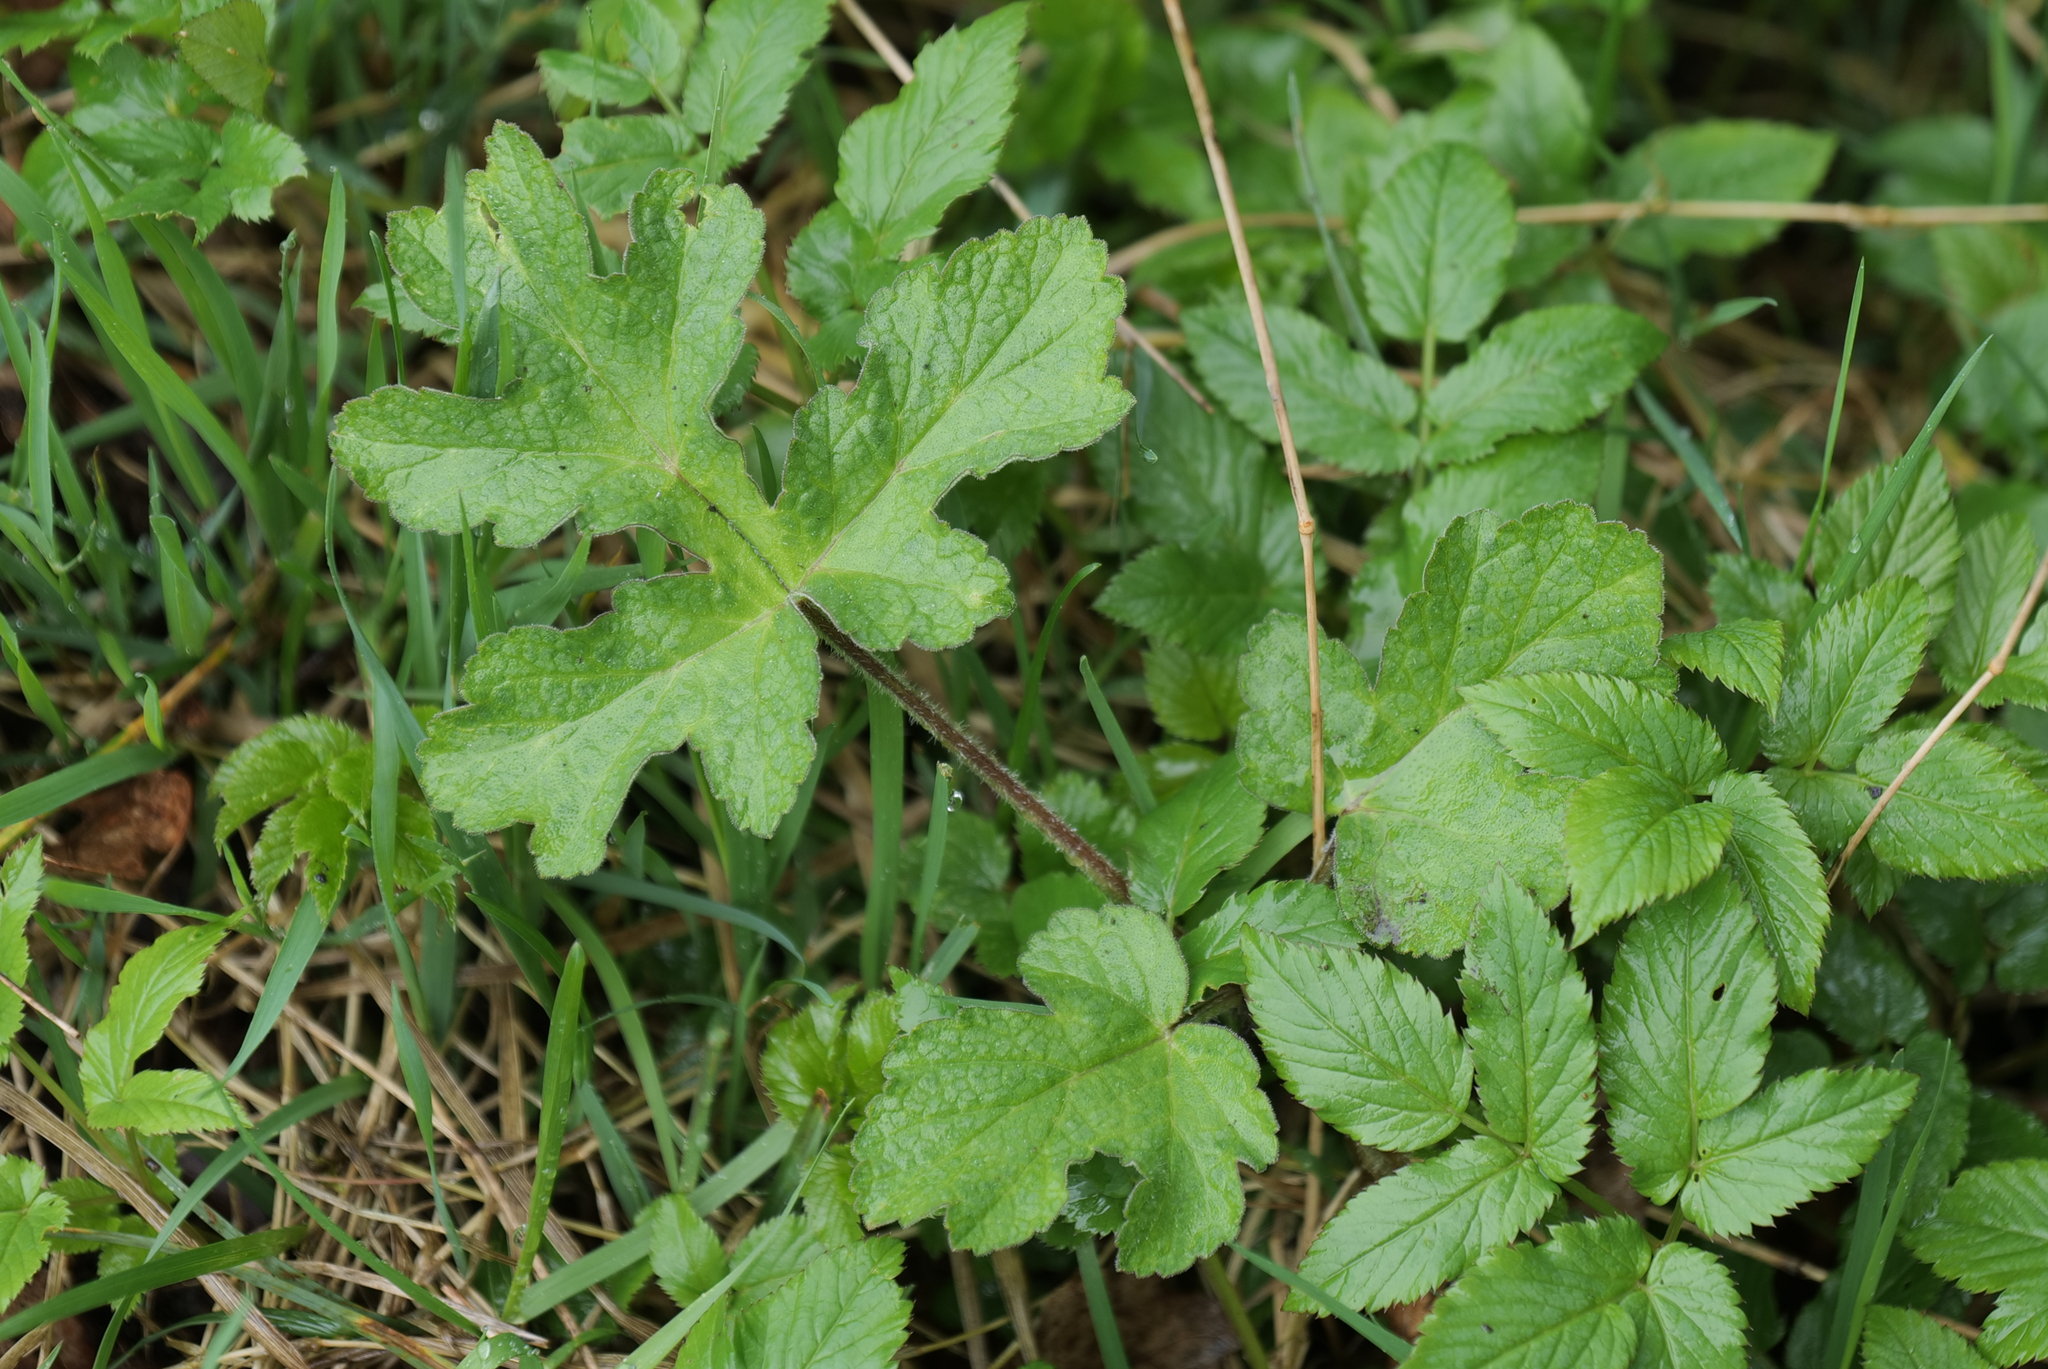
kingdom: Plantae
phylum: Tracheophyta
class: Magnoliopsida
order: Apiales
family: Apiaceae
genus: Heracleum
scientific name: Heracleum sphondylium
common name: Hogweed
